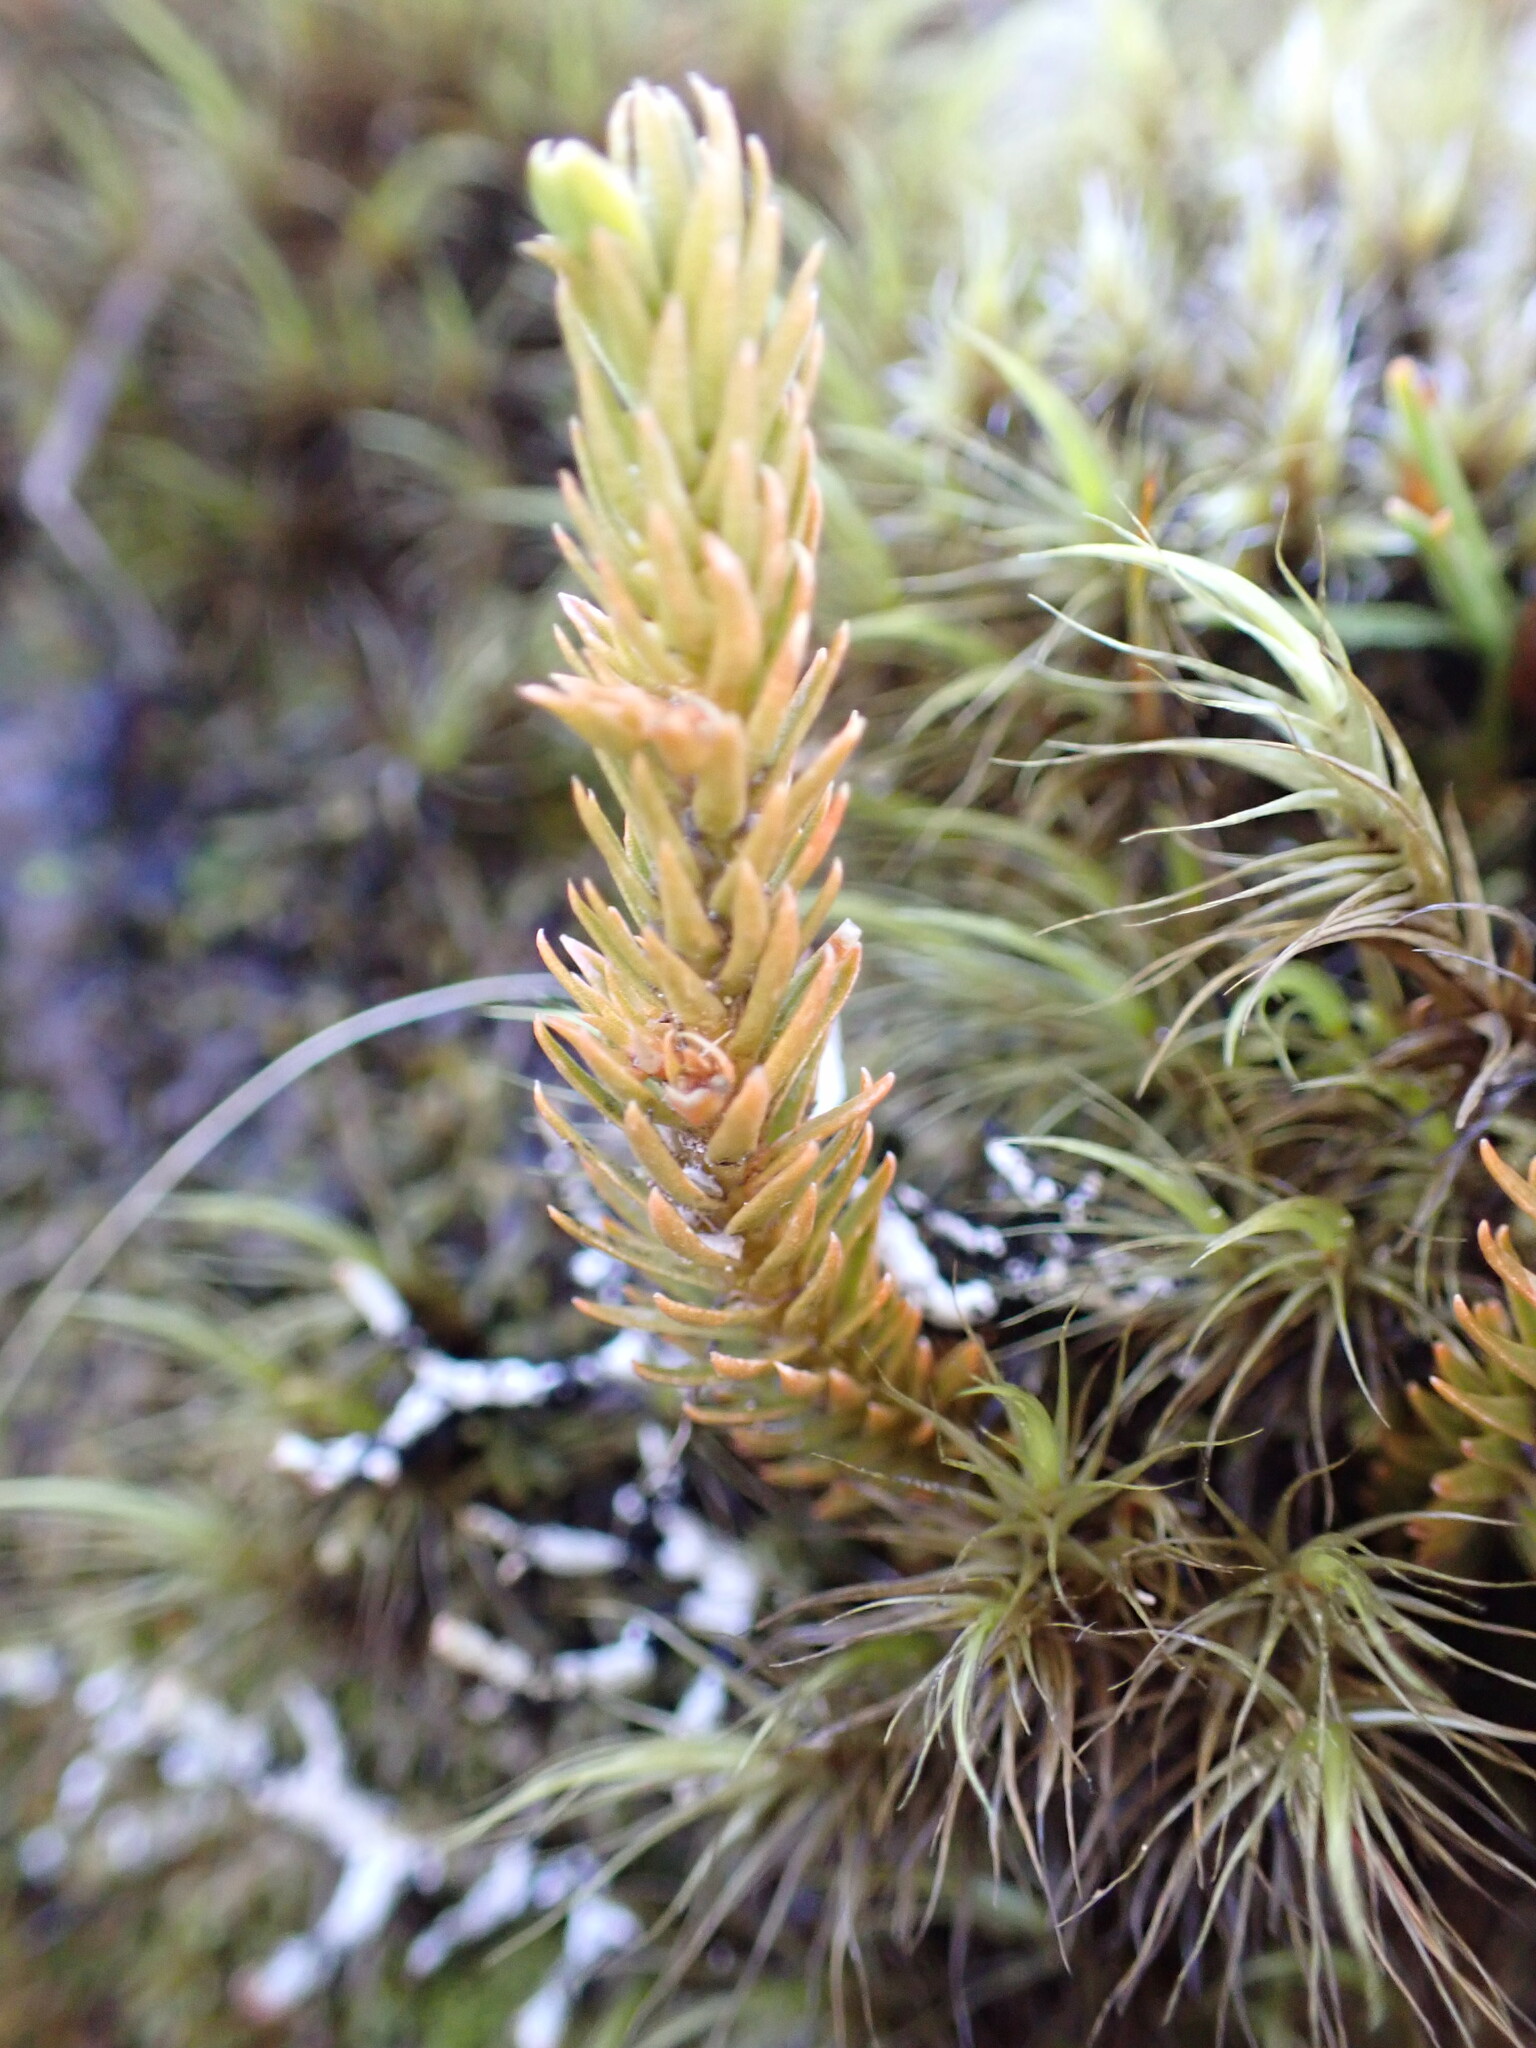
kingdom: Plantae
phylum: Tracheophyta
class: Lycopodiopsida
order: Lycopodiales
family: Lycopodiaceae
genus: Huperzia
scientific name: Huperzia australiana
